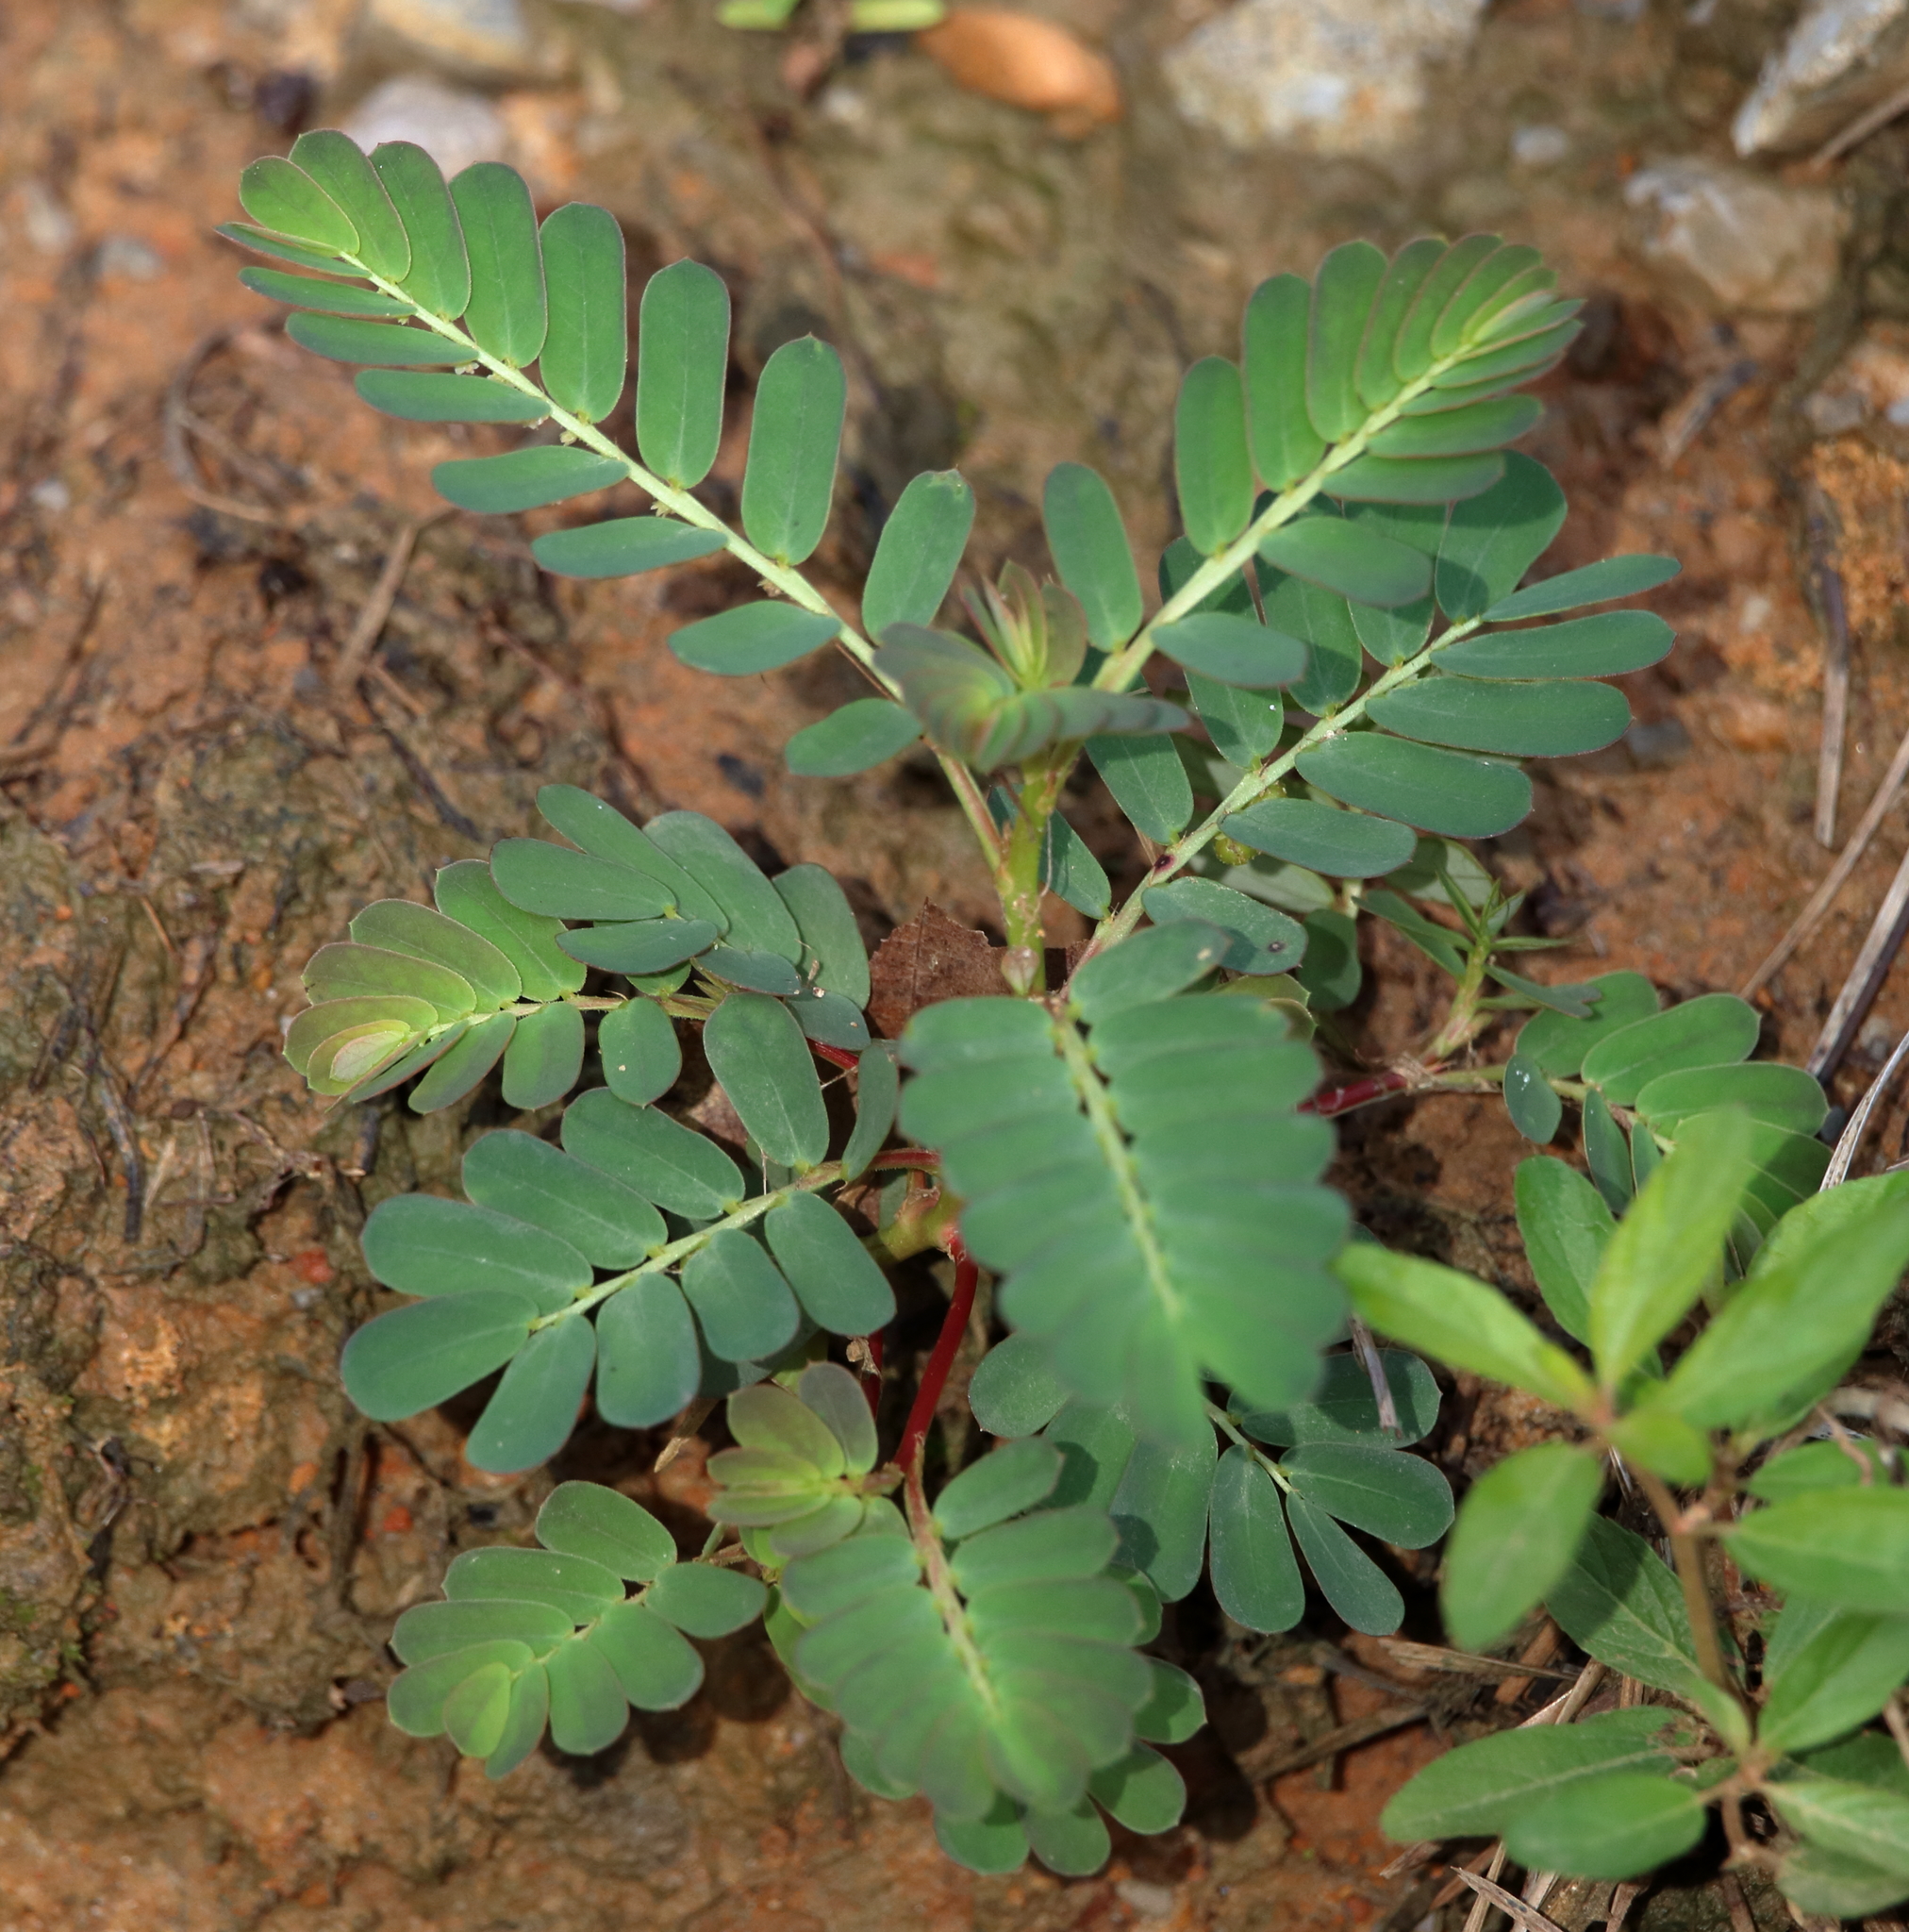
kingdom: Plantae
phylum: Tracheophyta
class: Magnoliopsida
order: Malpighiales
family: Phyllanthaceae
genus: Phyllanthus
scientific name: Phyllanthus urinaria
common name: Chamber bitter
